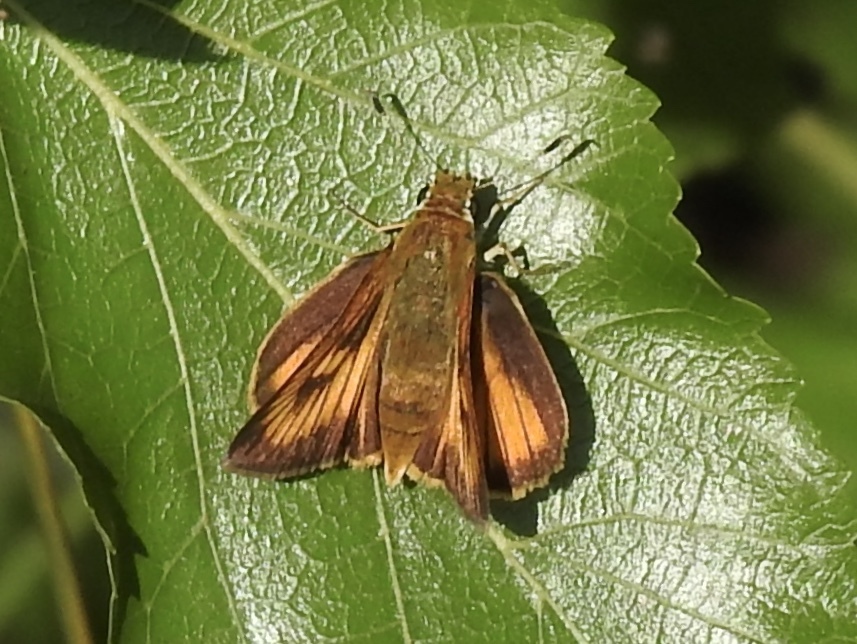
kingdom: Animalia
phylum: Arthropoda
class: Insecta
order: Lepidoptera
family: Hesperiidae
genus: Atrytone
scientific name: Atrytone delaware
